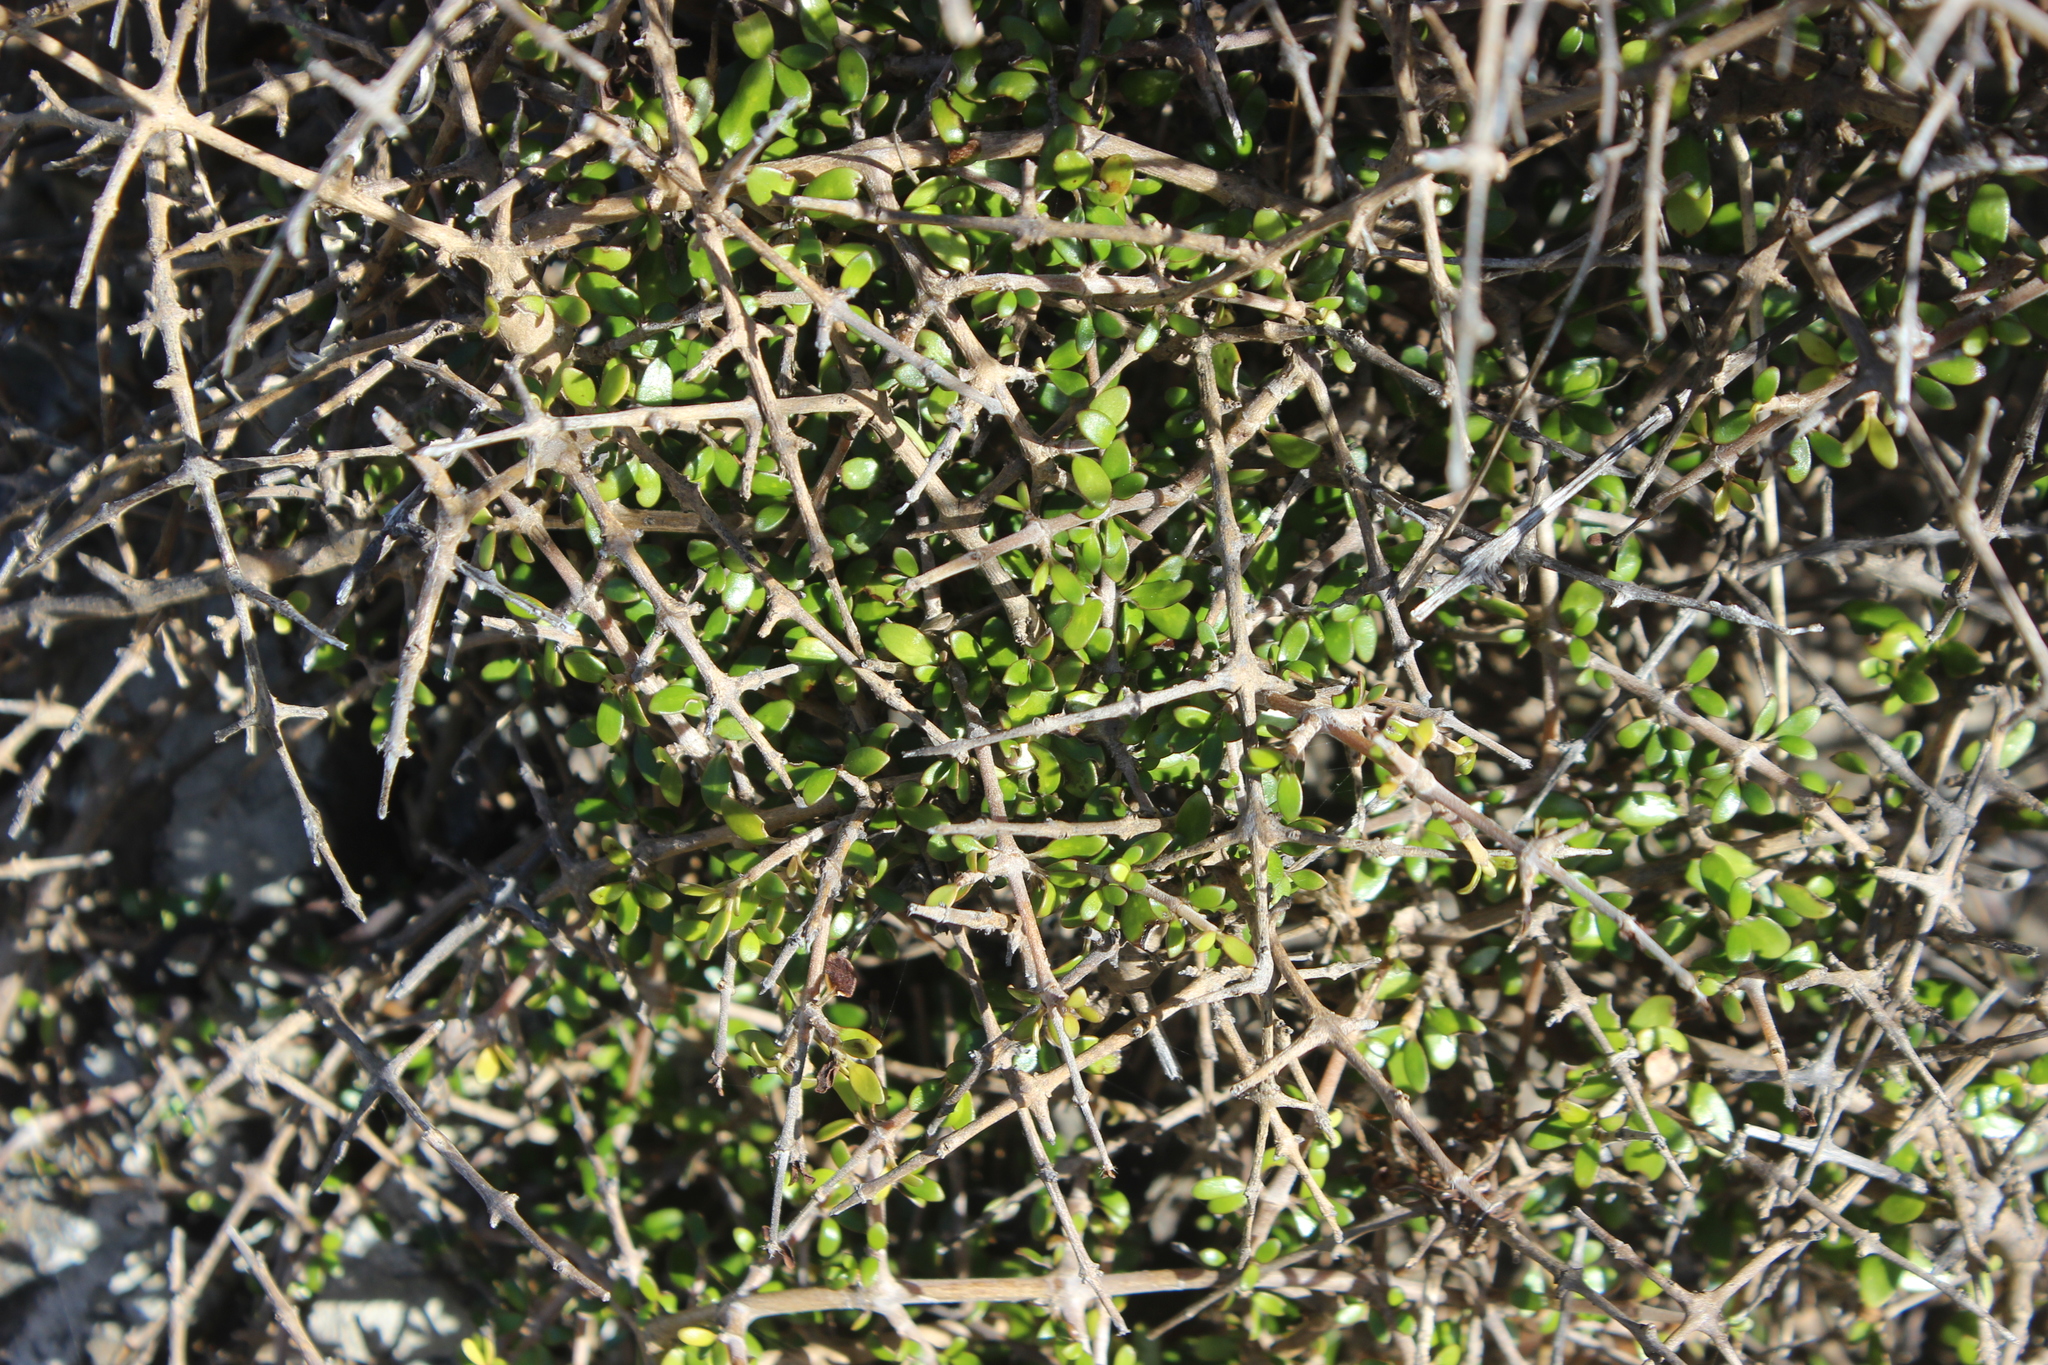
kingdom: Plantae
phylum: Tracheophyta
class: Magnoliopsida
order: Gentianales
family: Rubiaceae
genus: Coprosma
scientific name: Coprosma propinqua
